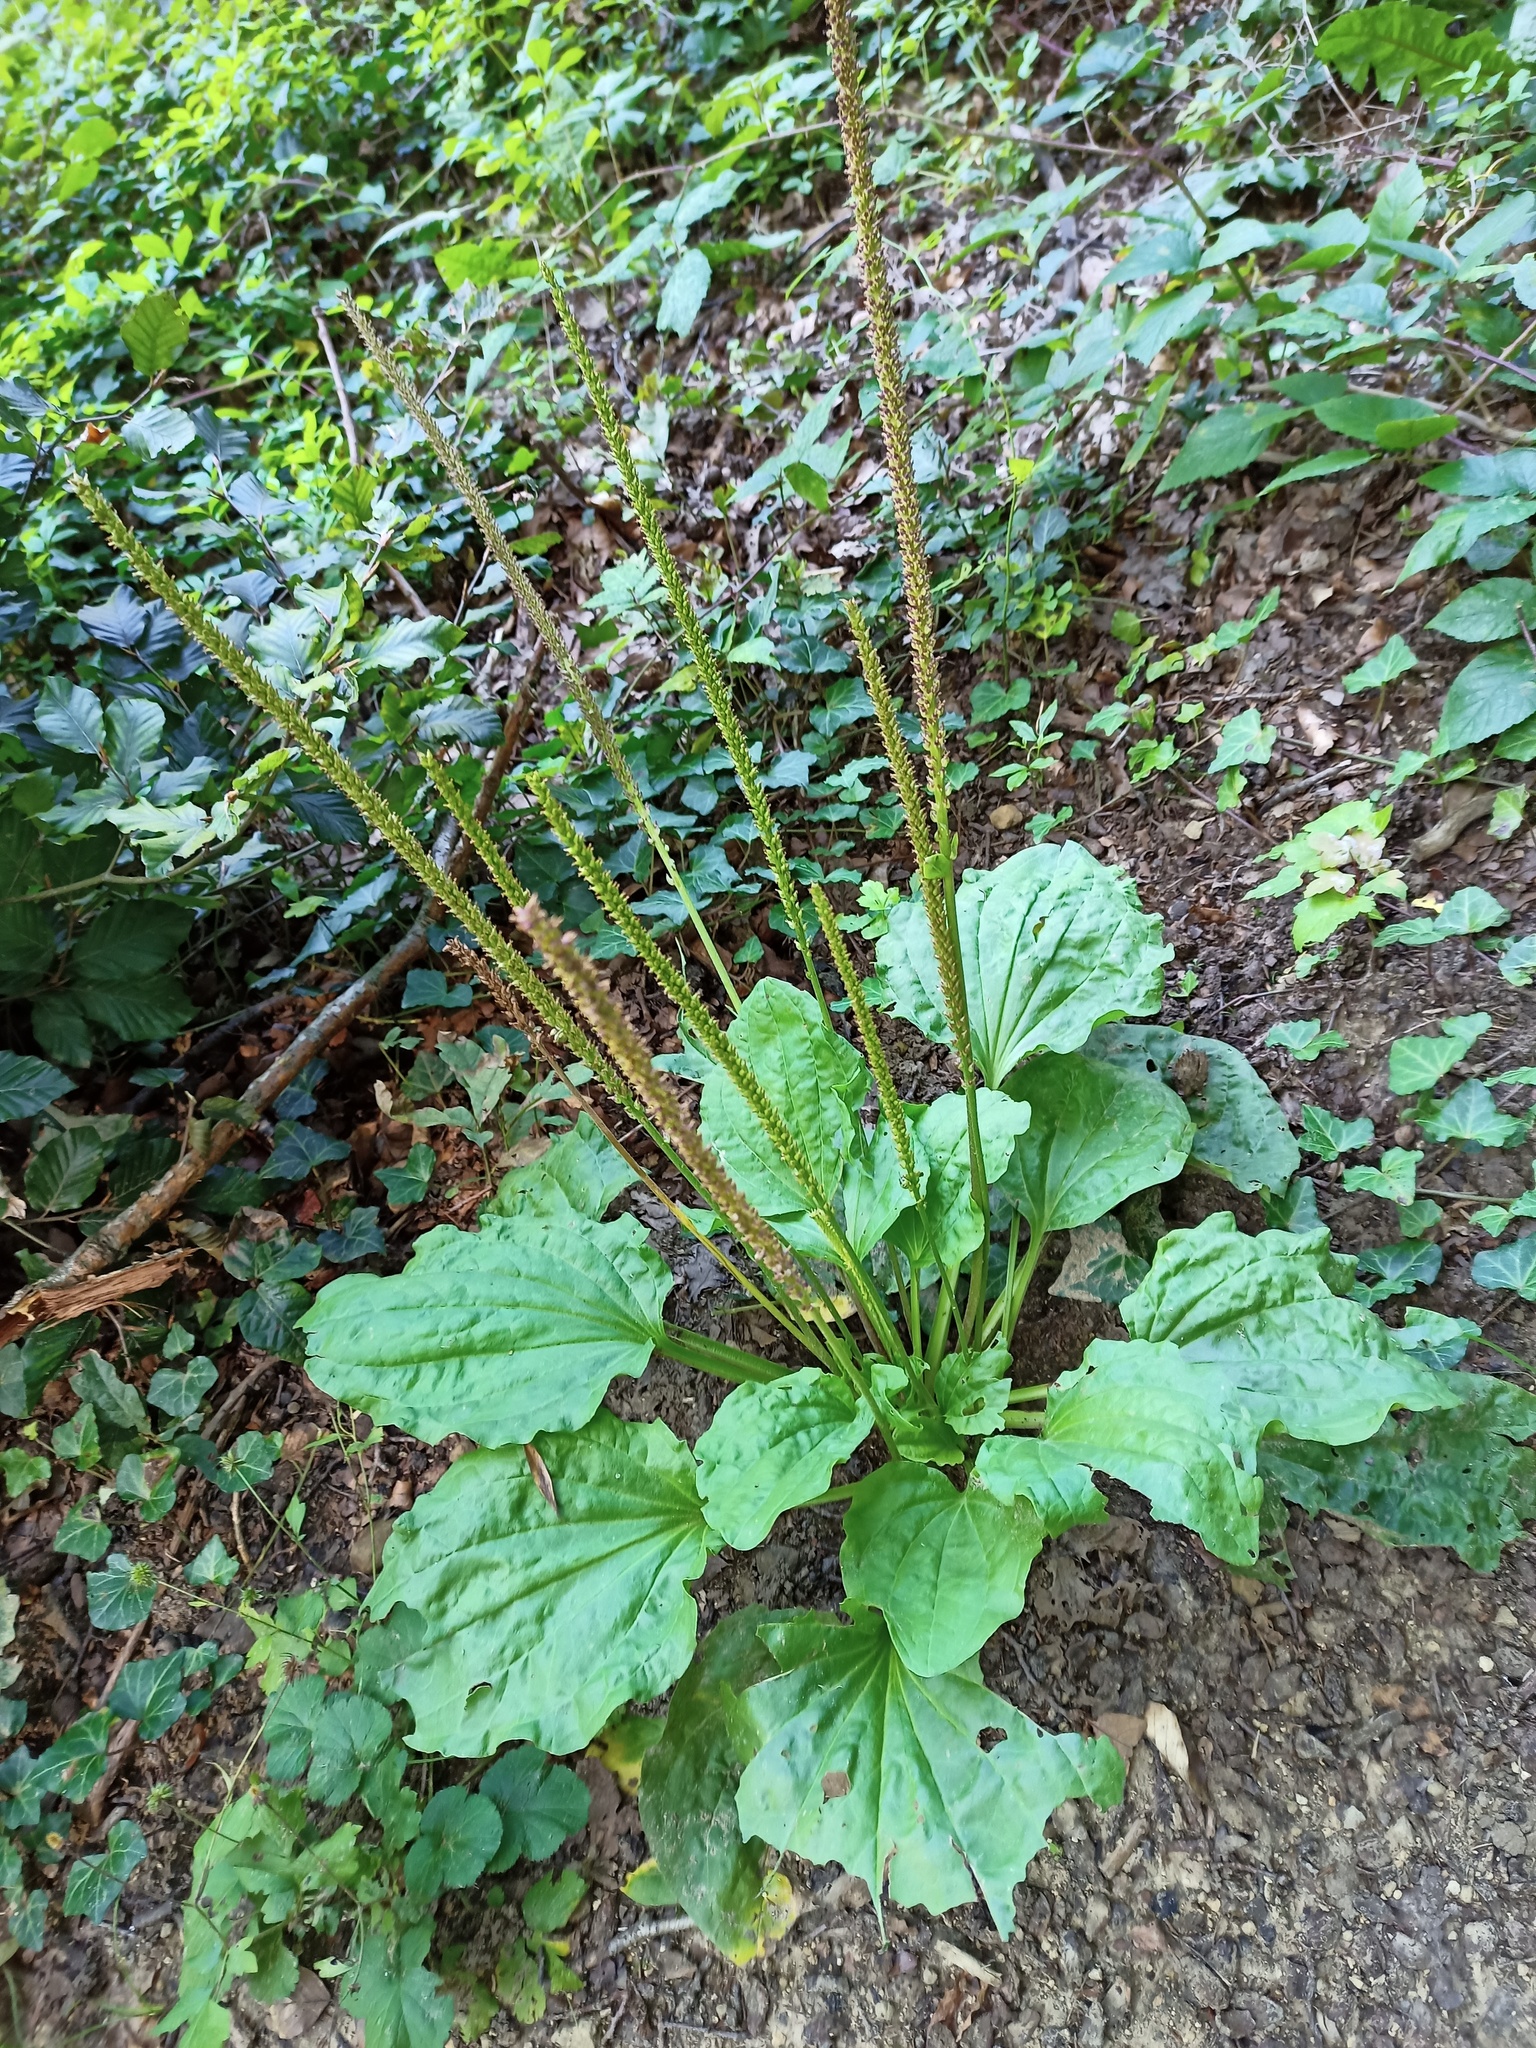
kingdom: Plantae
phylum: Tracheophyta
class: Magnoliopsida
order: Lamiales
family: Plantaginaceae
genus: Plantago
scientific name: Plantago major
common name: Common plantain
